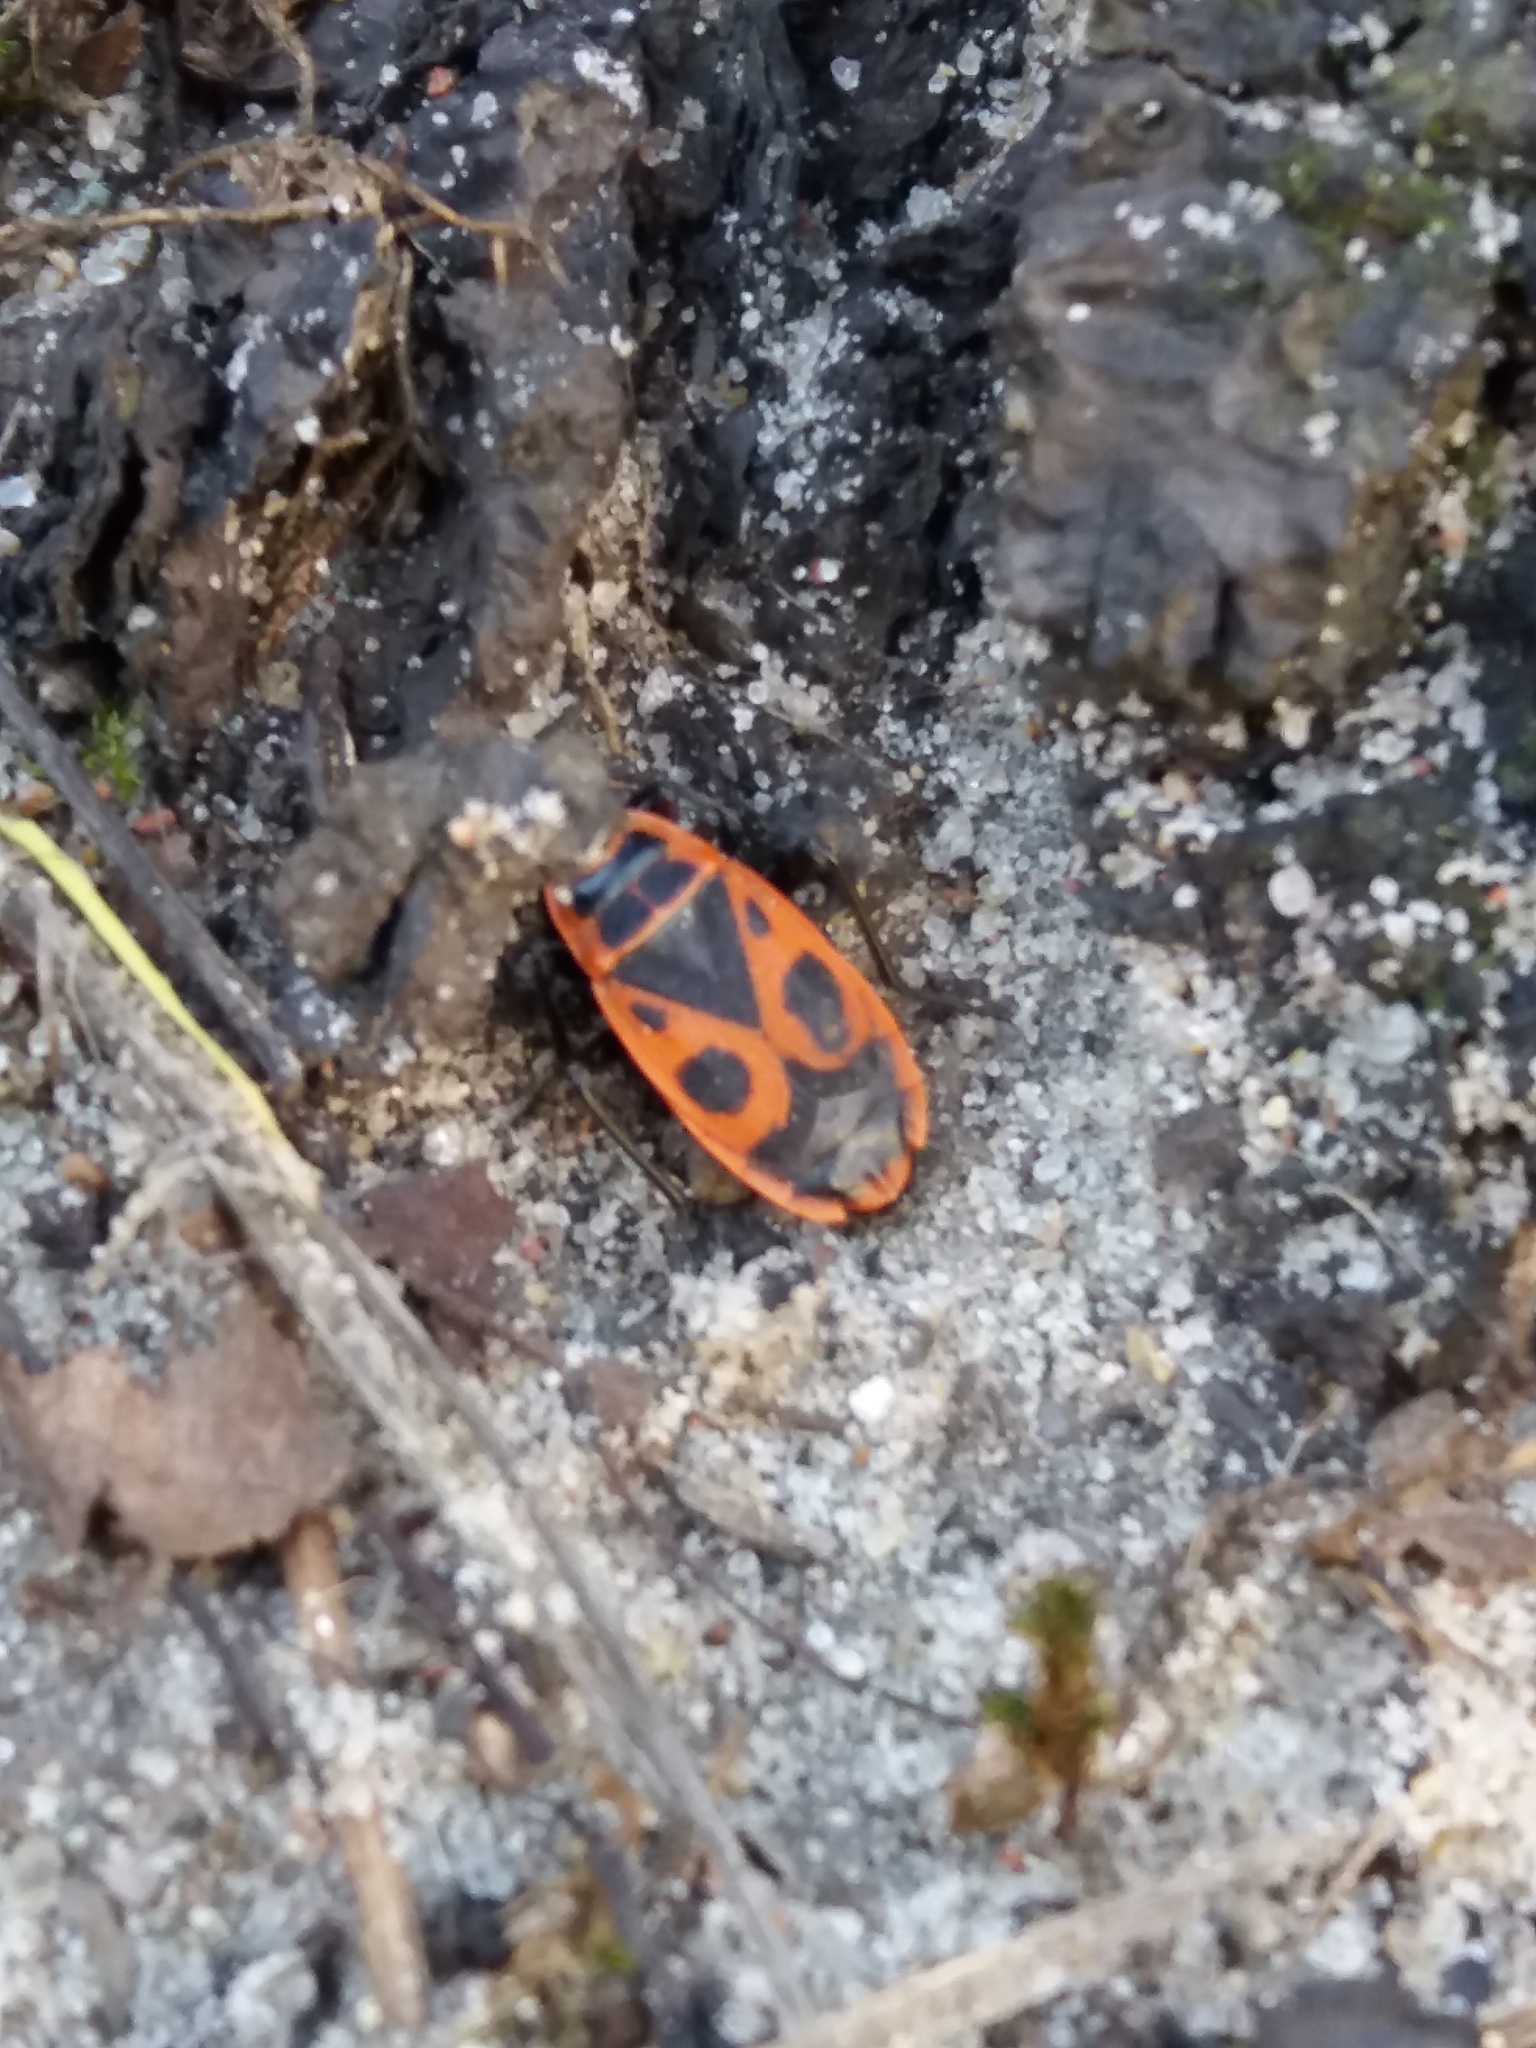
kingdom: Animalia
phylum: Arthropoda
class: Insecta
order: Hemiptera
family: Pyrrhocoridae
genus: Pyrrhocoris
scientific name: Pyrrhocoris apterus
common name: Firebug
